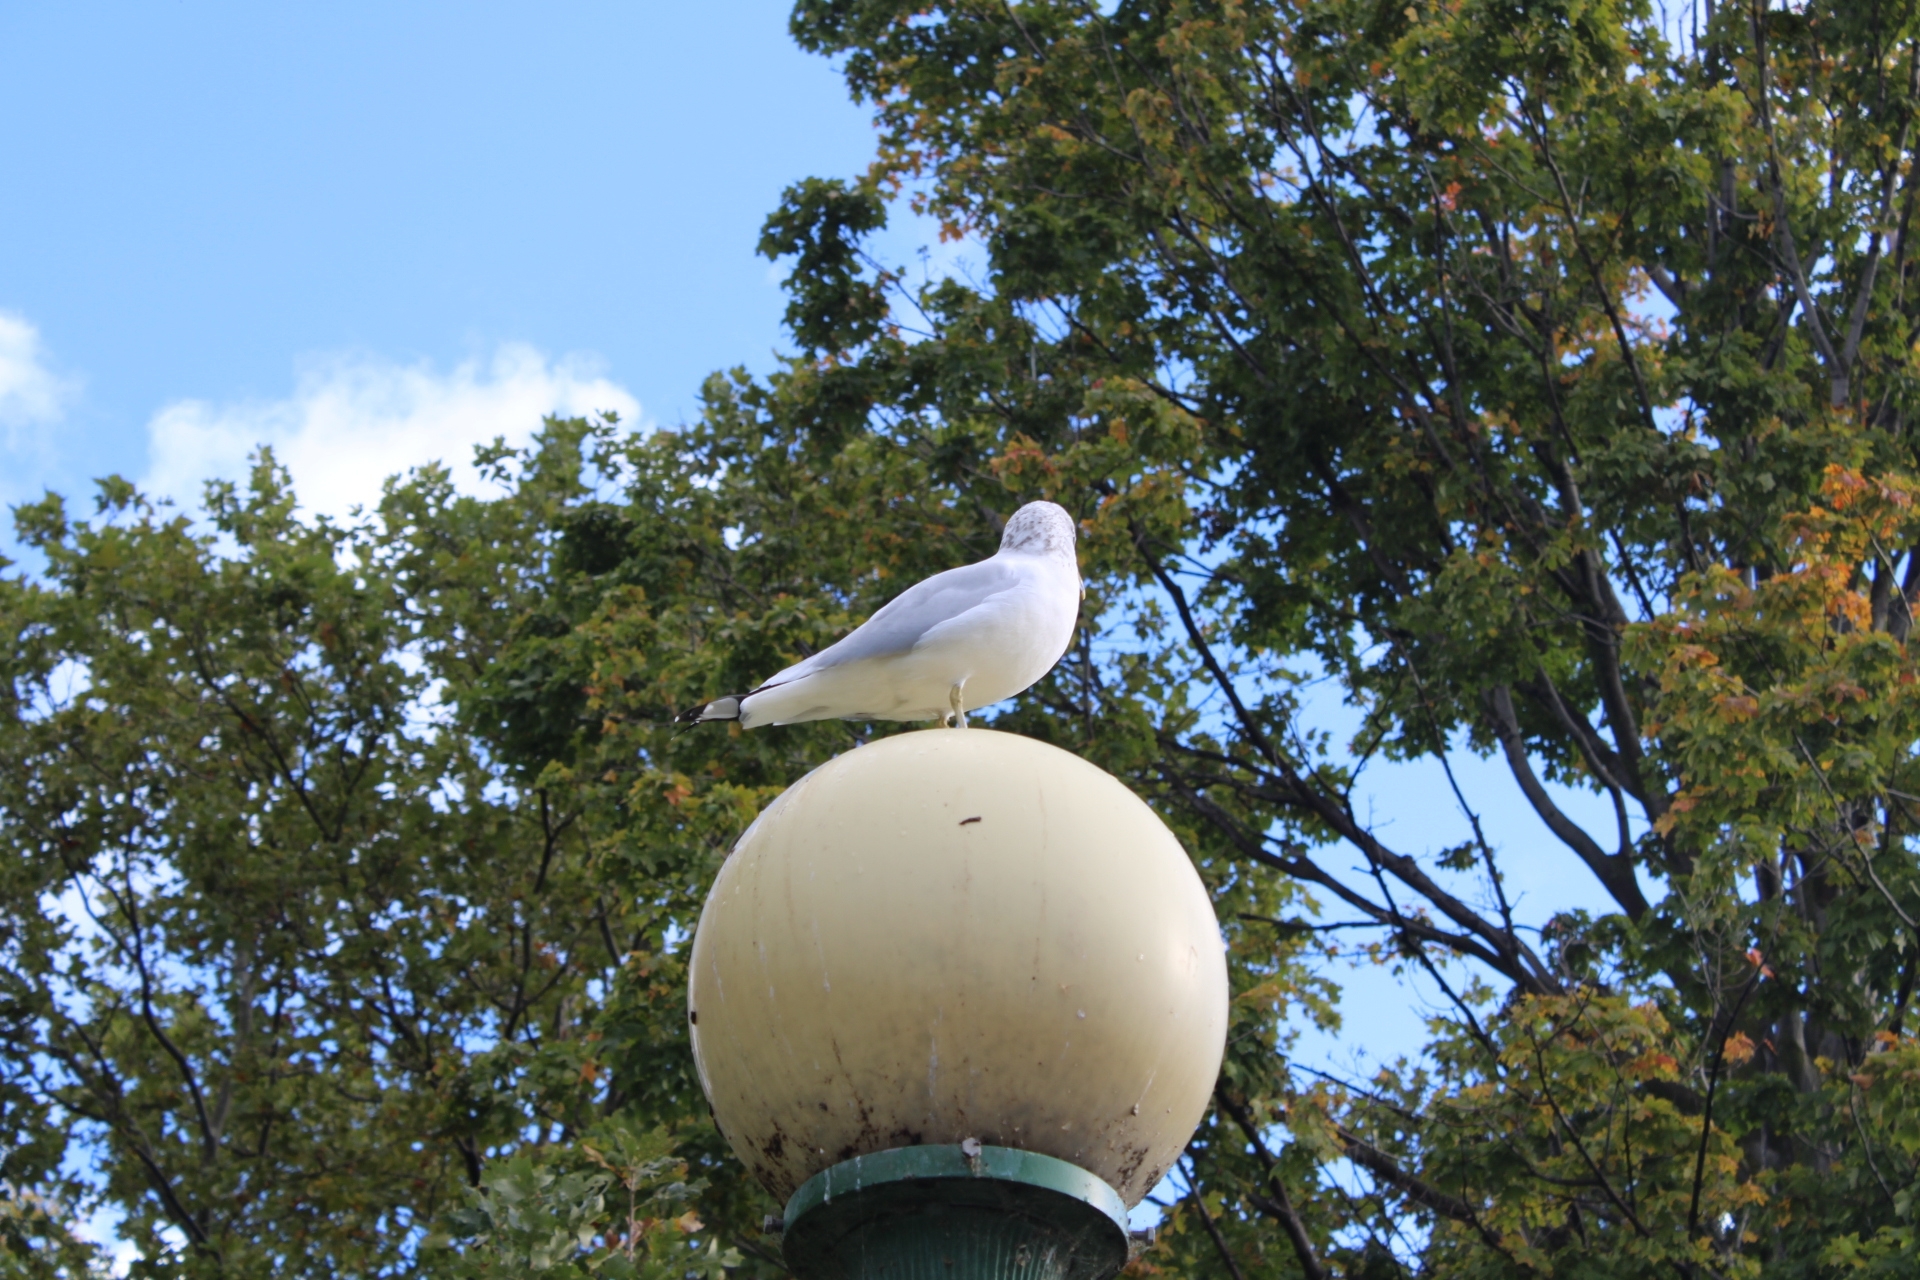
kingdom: Animalia
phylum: Chordata
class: Aves
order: Charadriiformes
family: Laridae
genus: Larus
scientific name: Larus delawarensis
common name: Ring-billed gull
